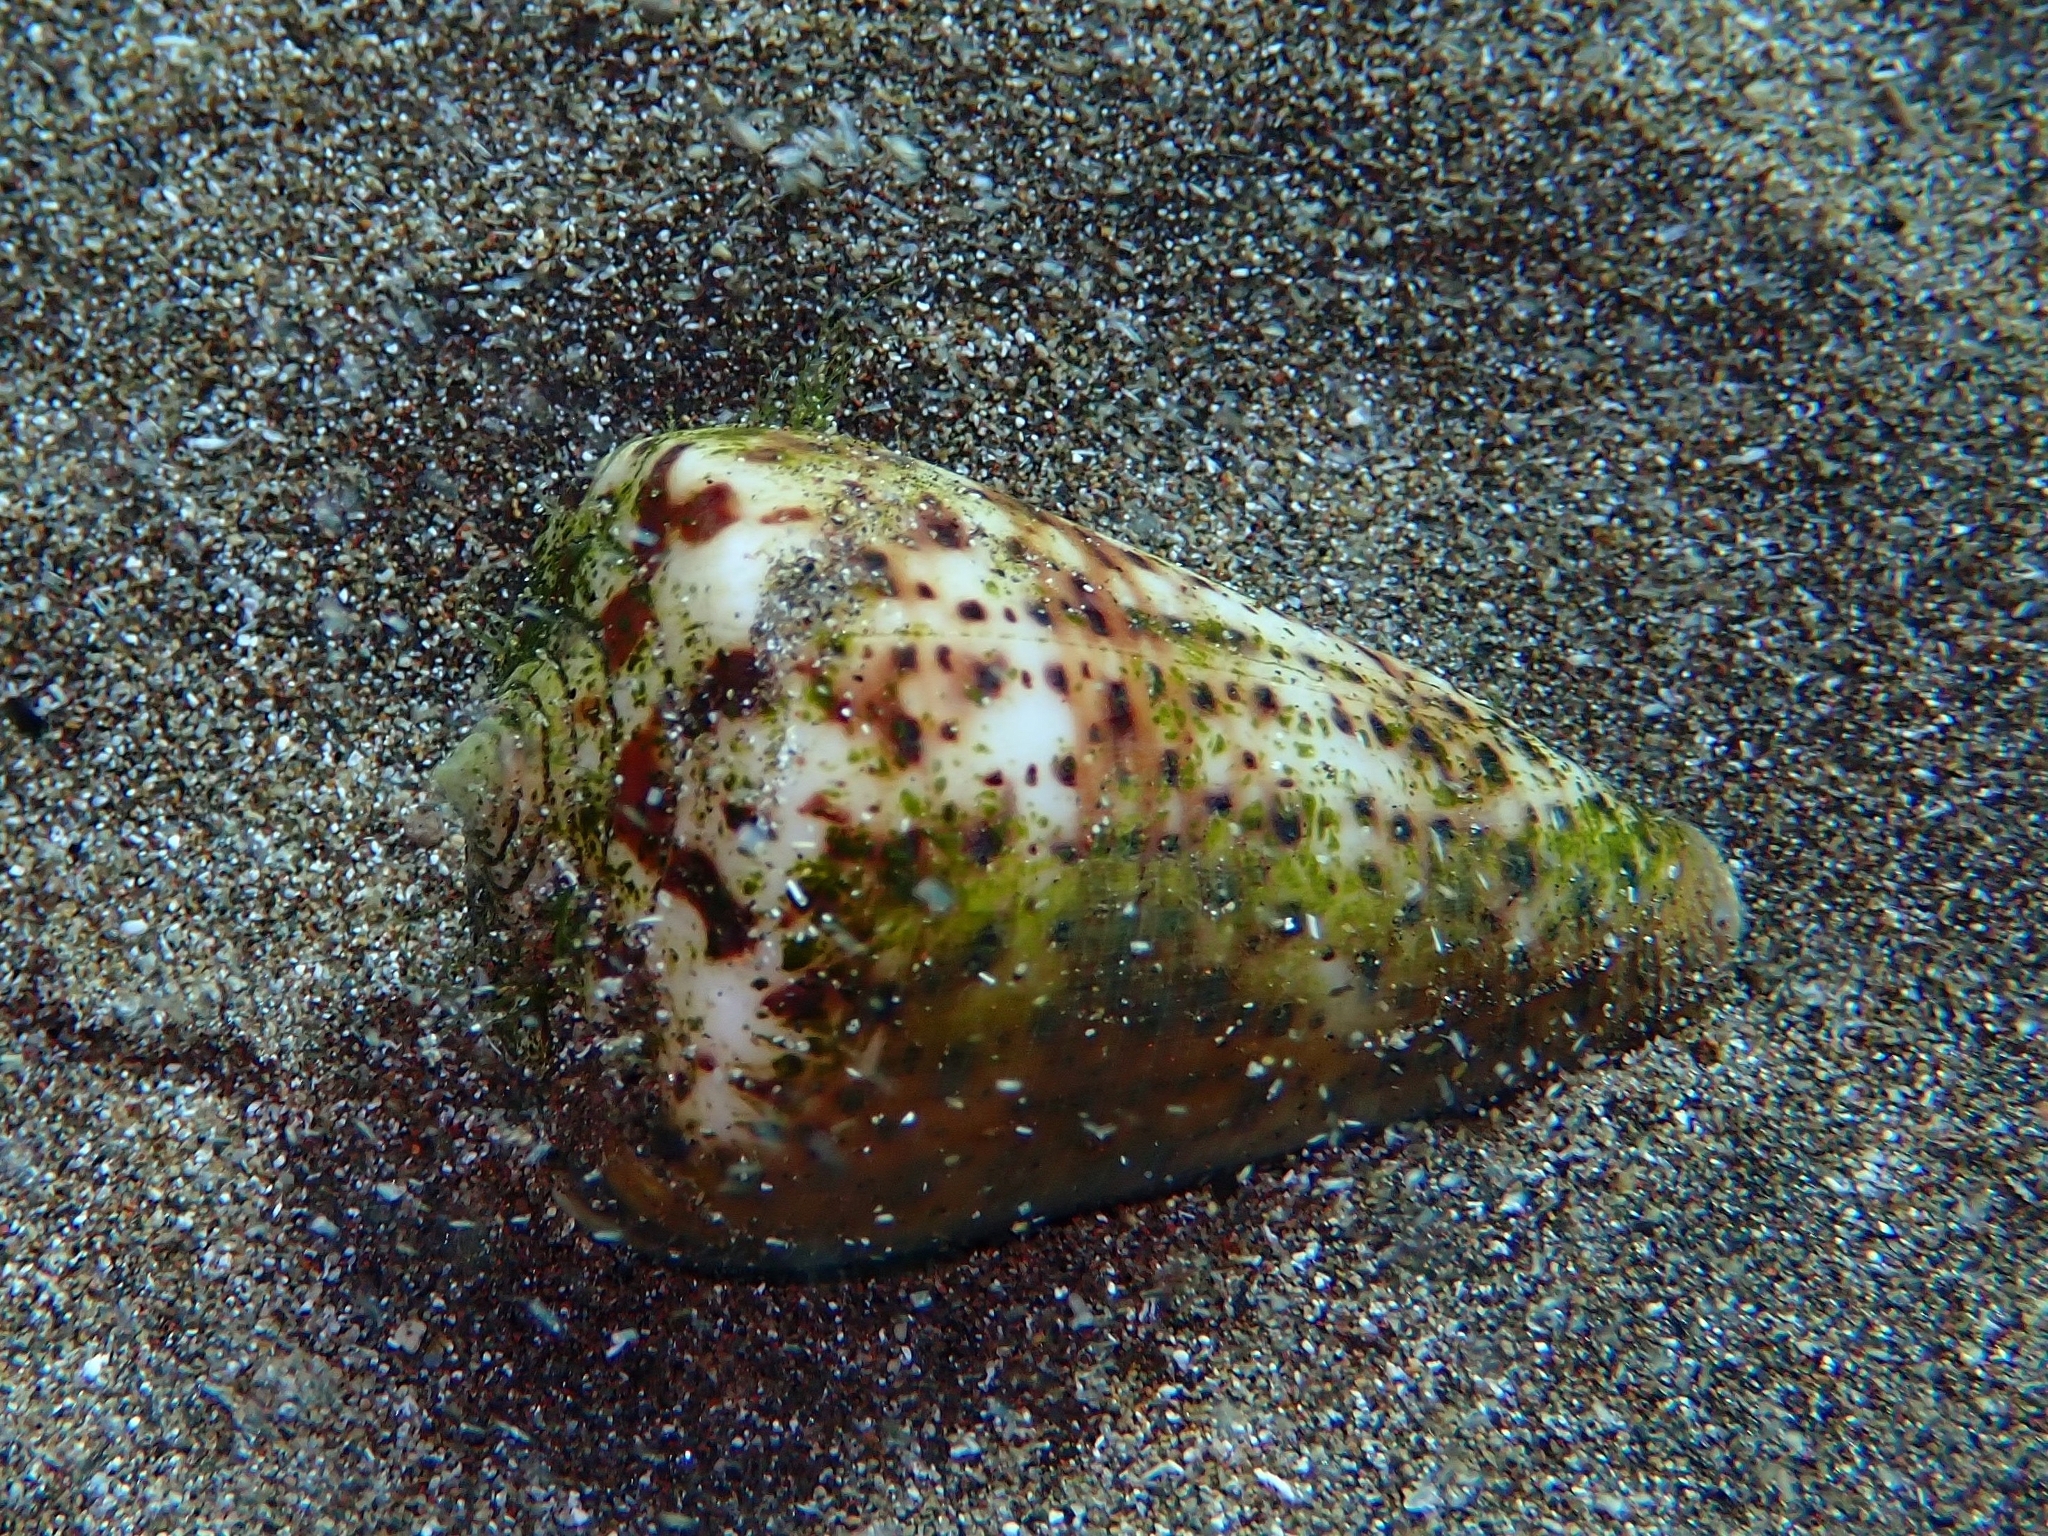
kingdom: Animalia
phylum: Mollusca
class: Gastropoda
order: Neogastropoda
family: Conidae
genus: Conus
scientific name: Conus canariensis
